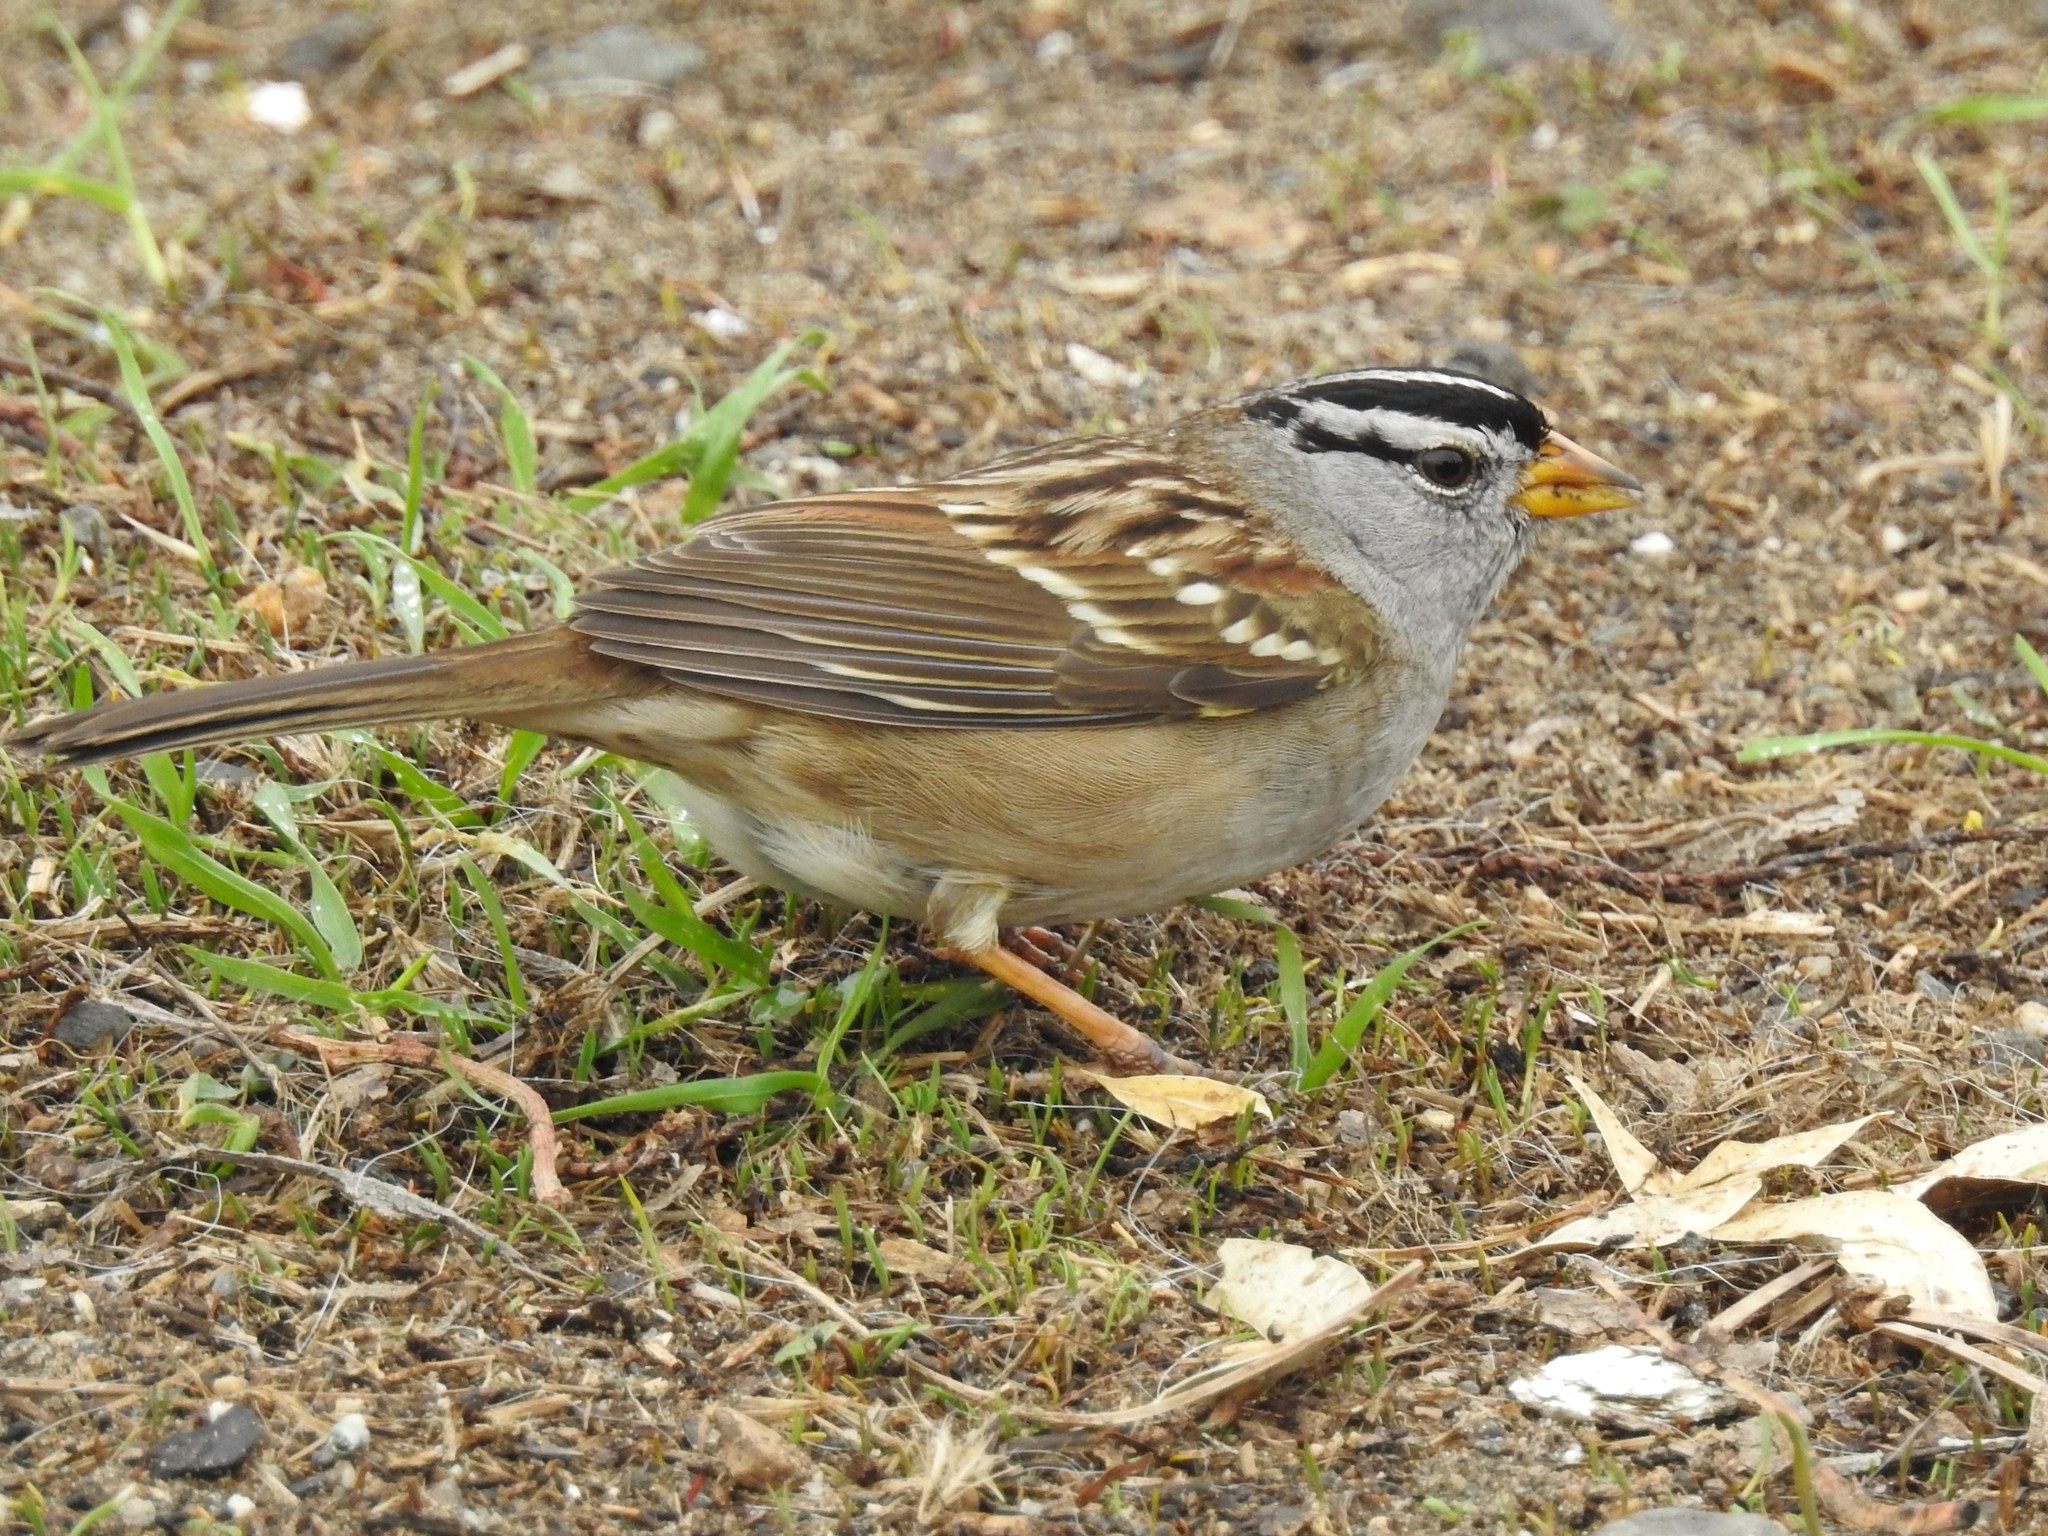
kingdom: Animalia
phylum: Chordata
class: Aves
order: Passeriformes
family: Passerellidae
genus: Zonotrichia
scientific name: Zonotrichia leucophrys
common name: White-crowned sparrow
